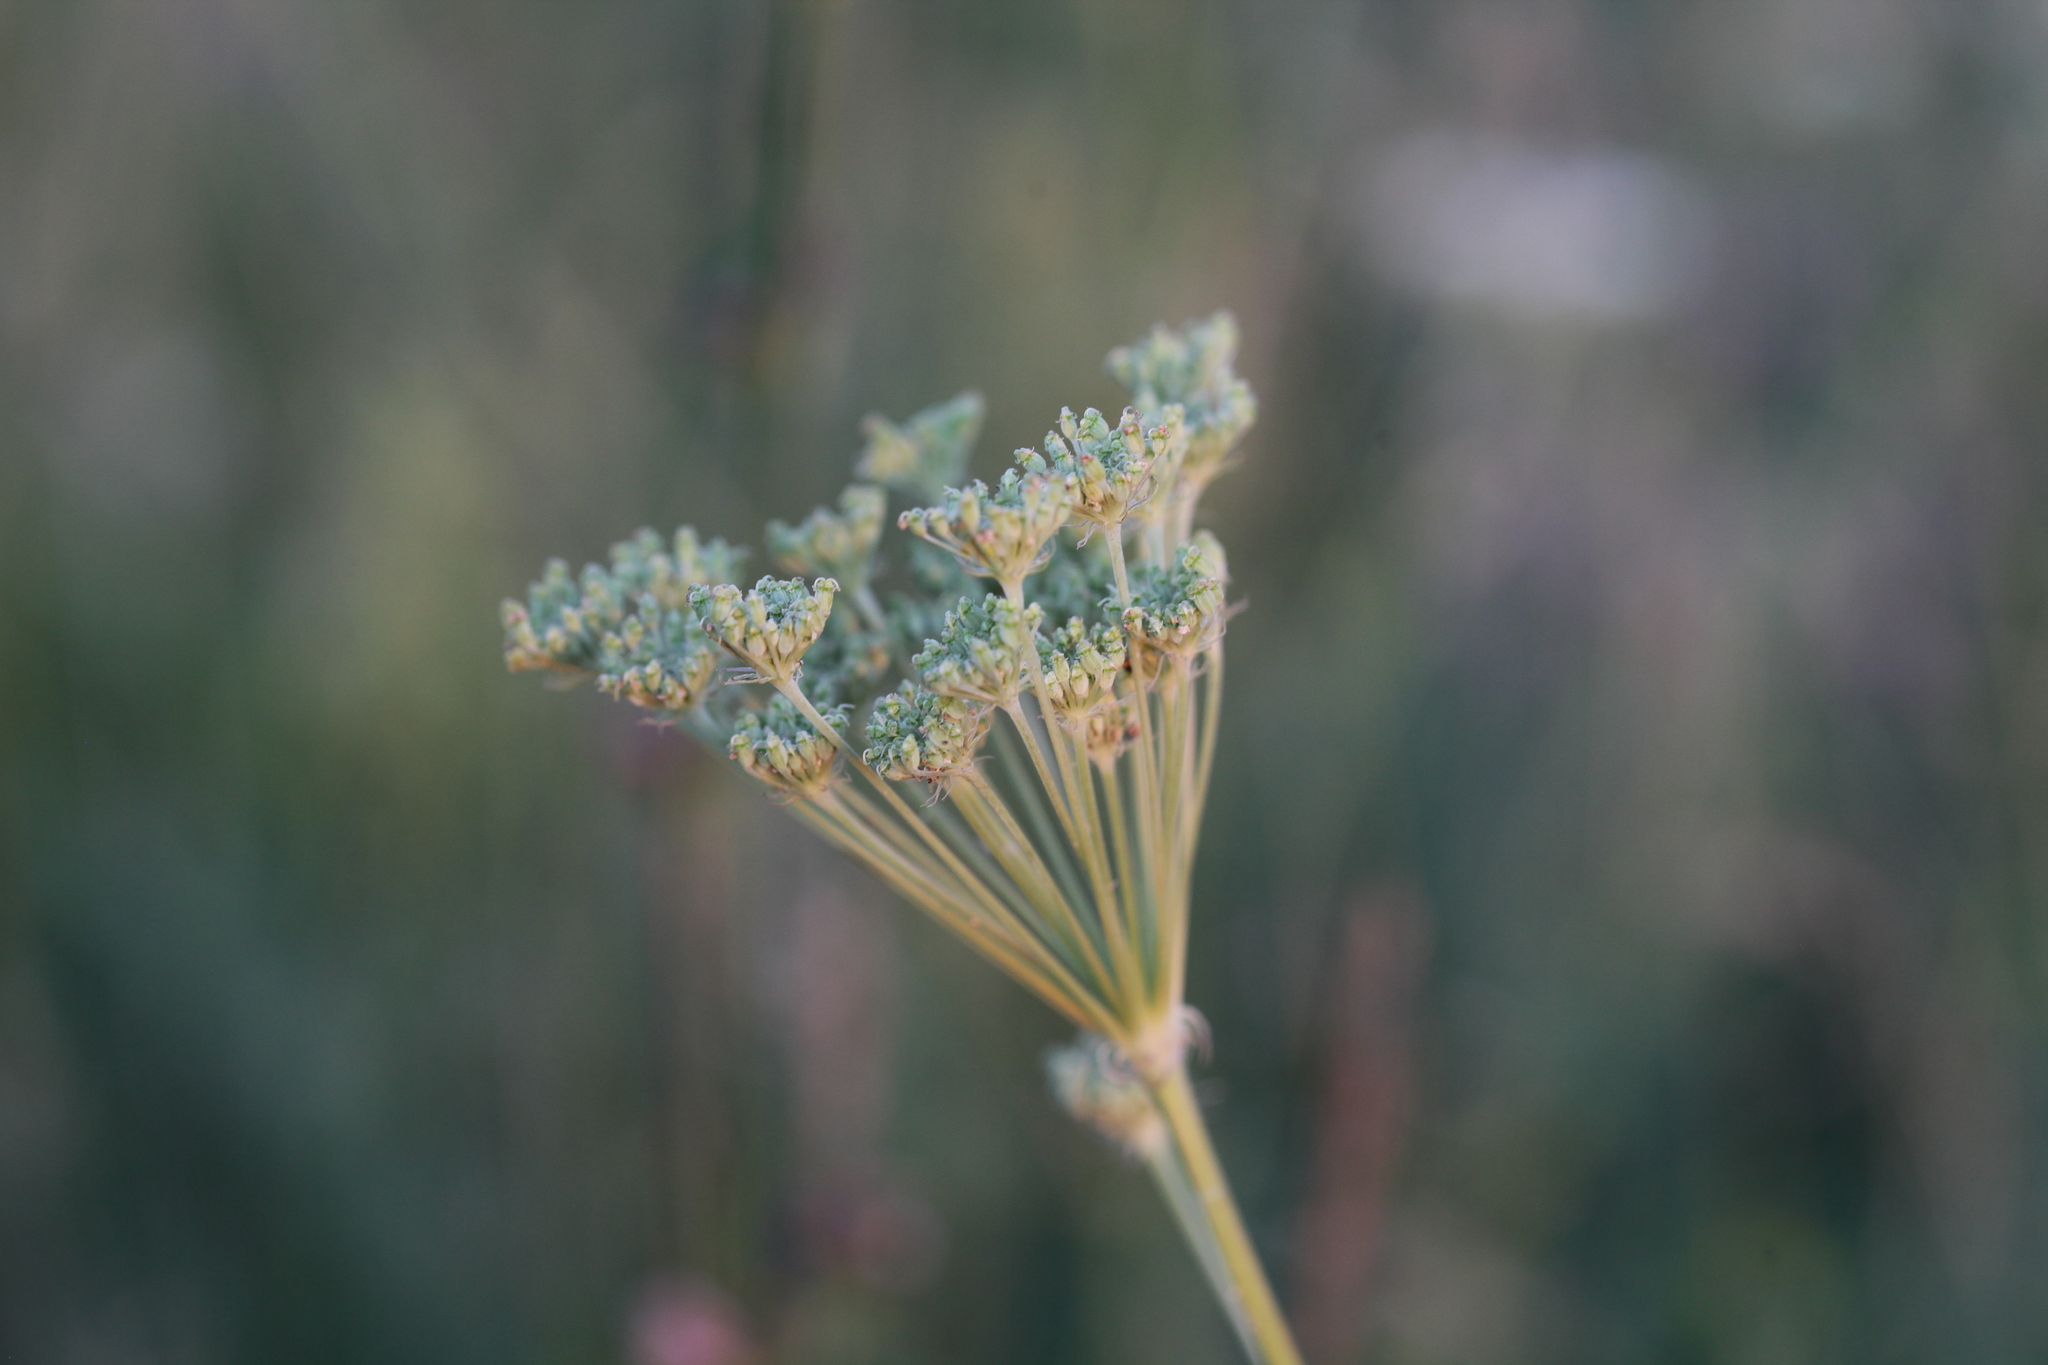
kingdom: Plantae
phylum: Tracheophyta
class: Magnoliopsida
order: Apiales
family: Apiaceae
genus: Seseli
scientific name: Seseli libanotis
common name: Mooncarrot
